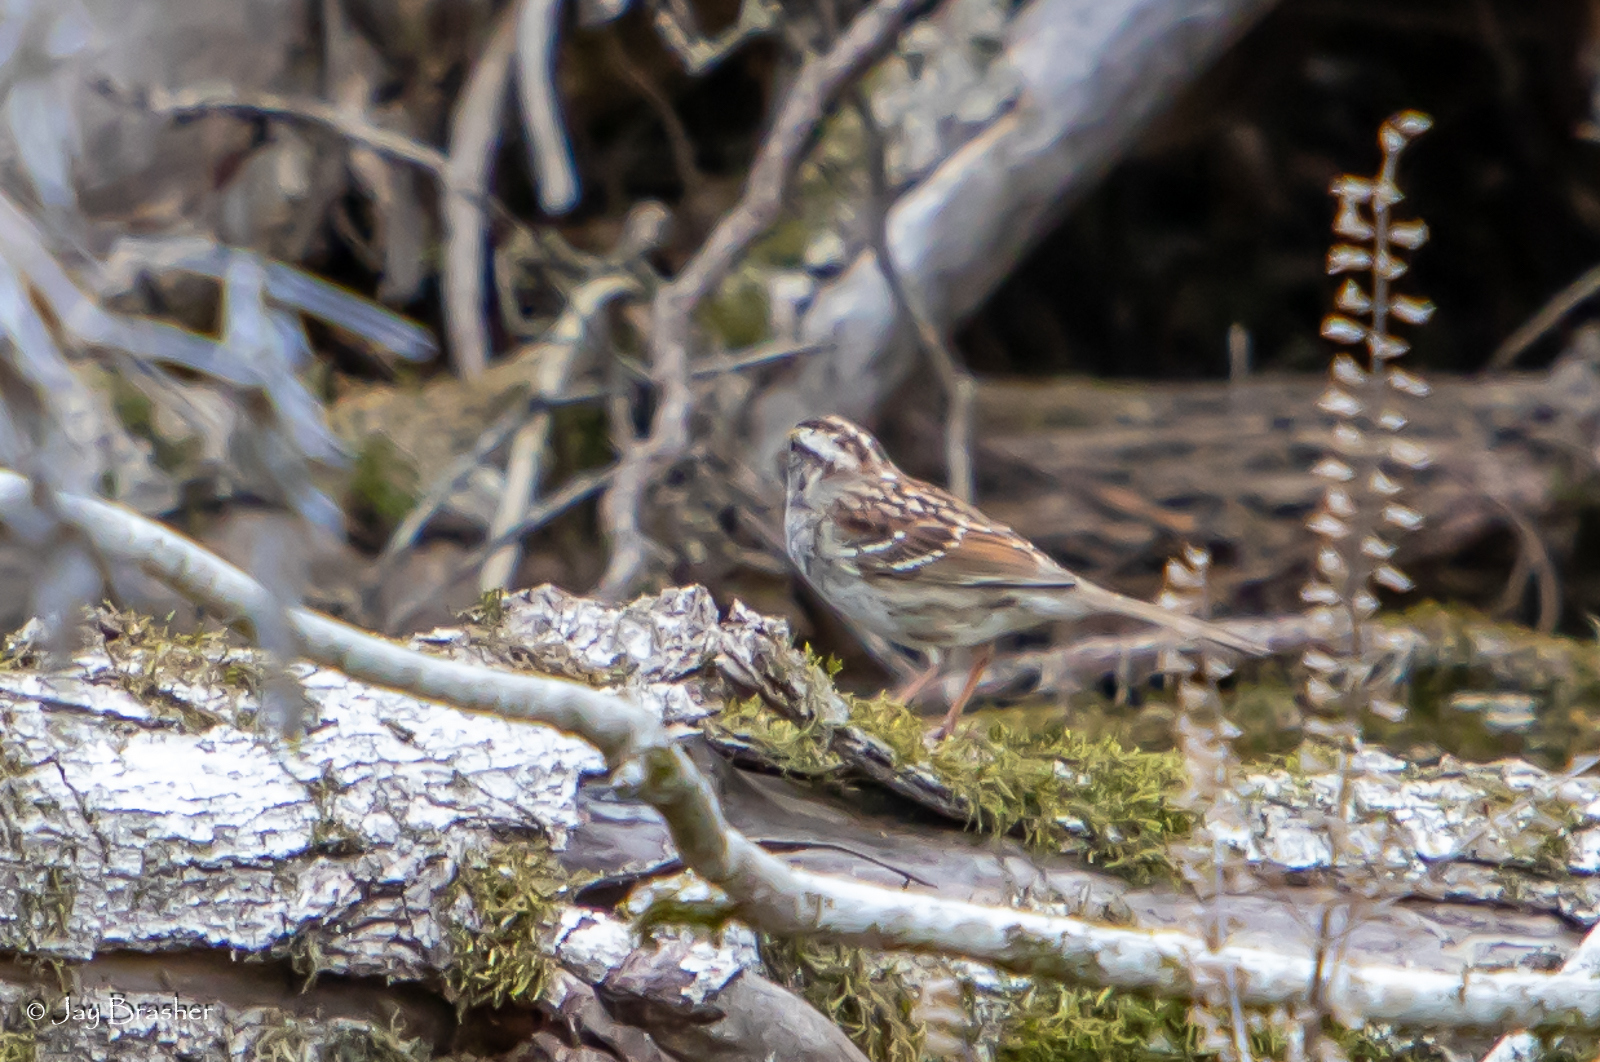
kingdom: Animalia
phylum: Chordata
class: Aves
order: Passeriformes
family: Passerellidae
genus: Zonotrichia
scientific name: Zonotrichia albicollis
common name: White-throated sparrow
